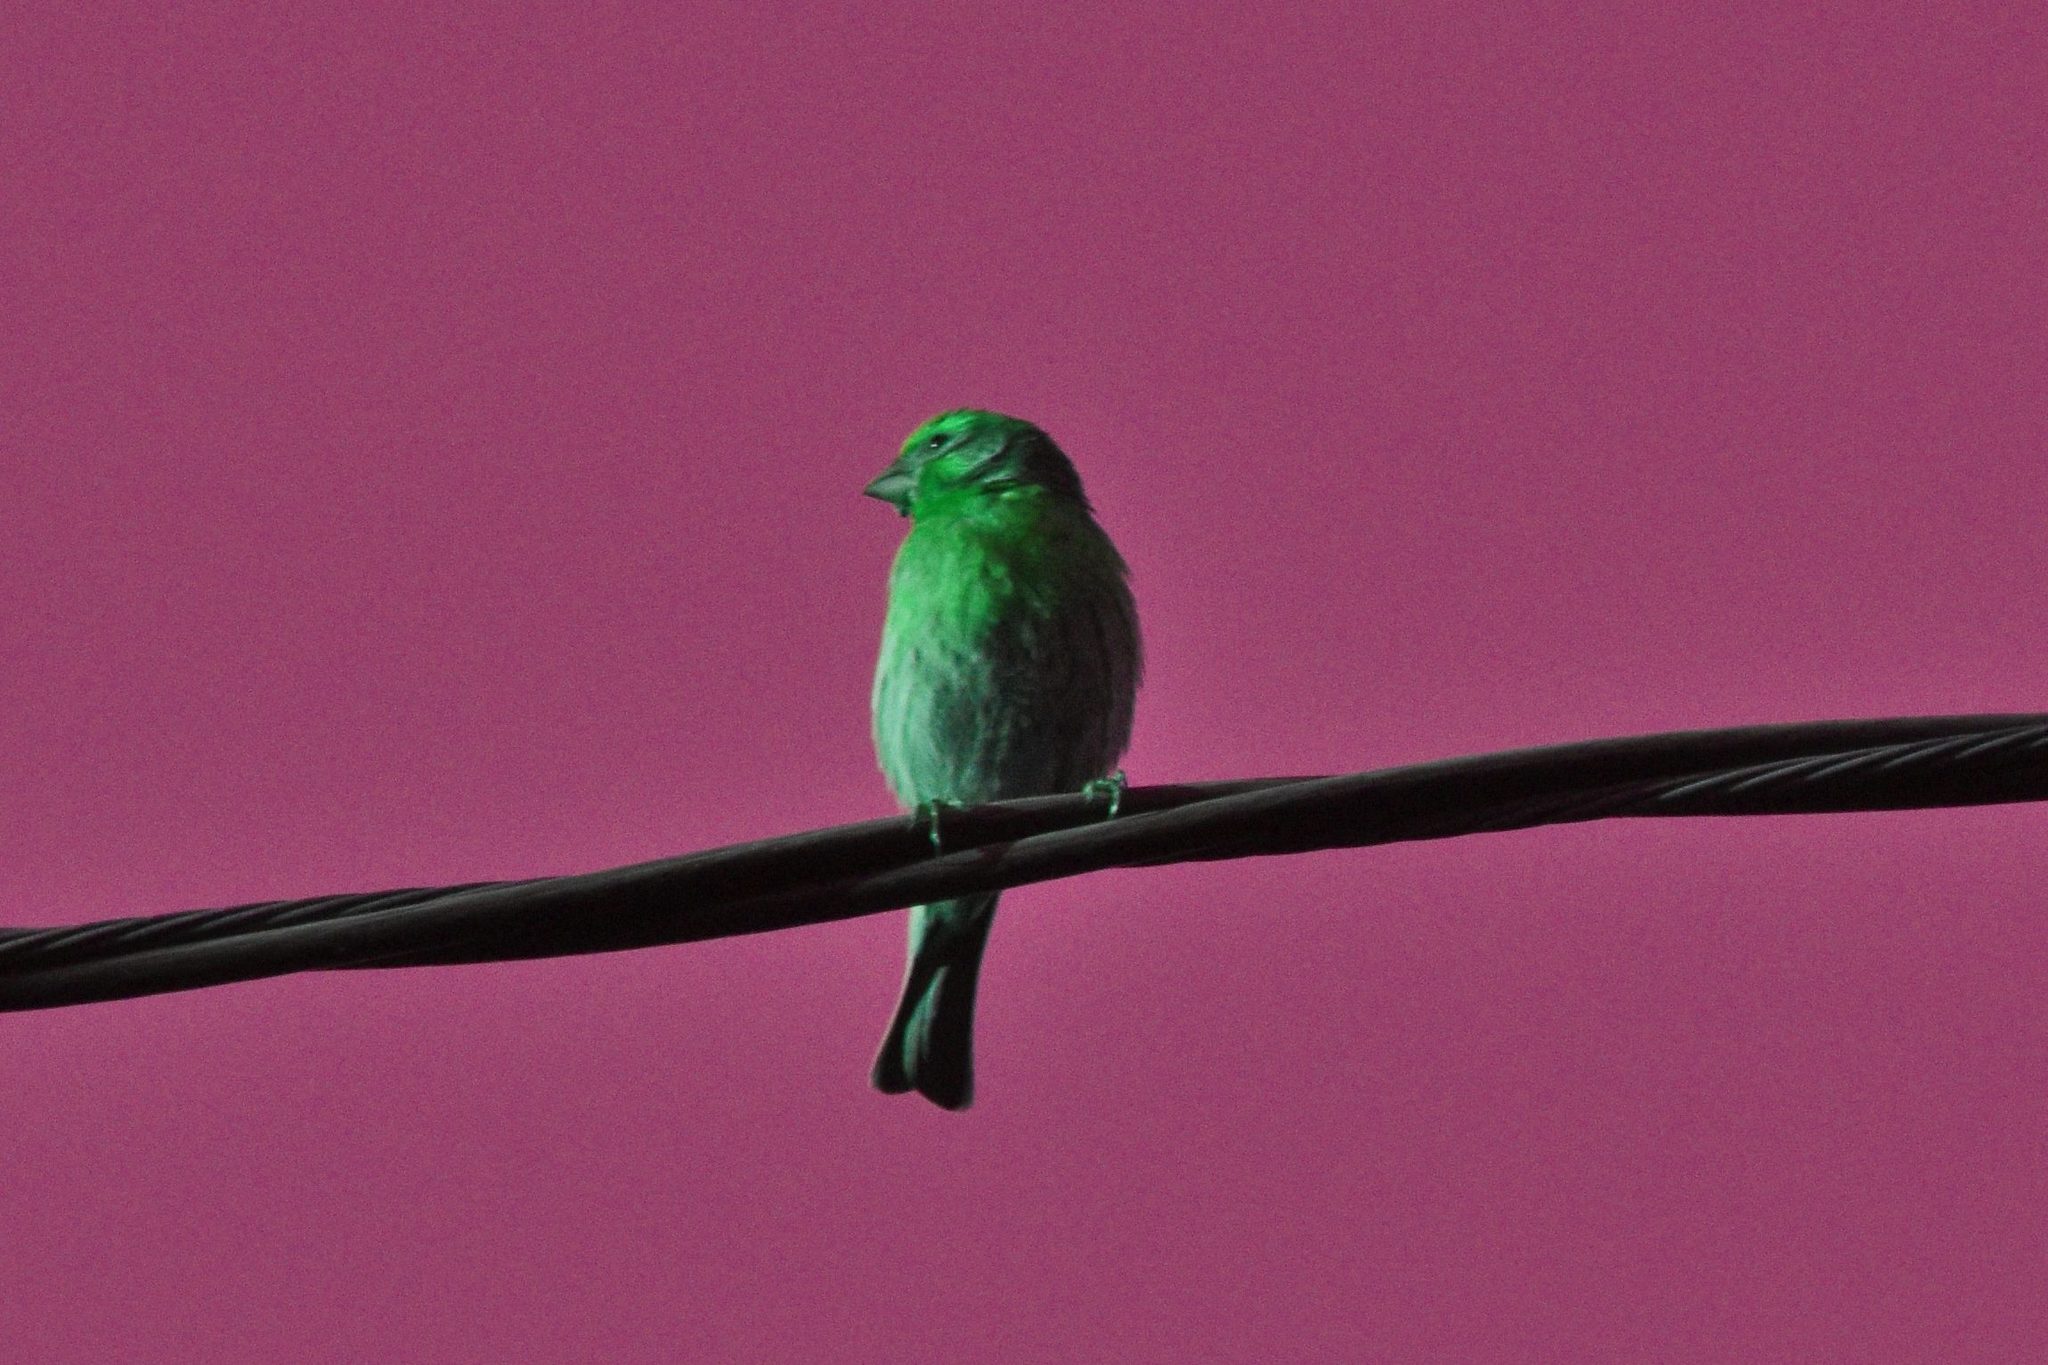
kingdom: Animalia
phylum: Chordata
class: Aves
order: Passeriformes
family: Fringillidae
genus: Haemorhous
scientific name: Haemorhous mexicanus
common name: House finch
